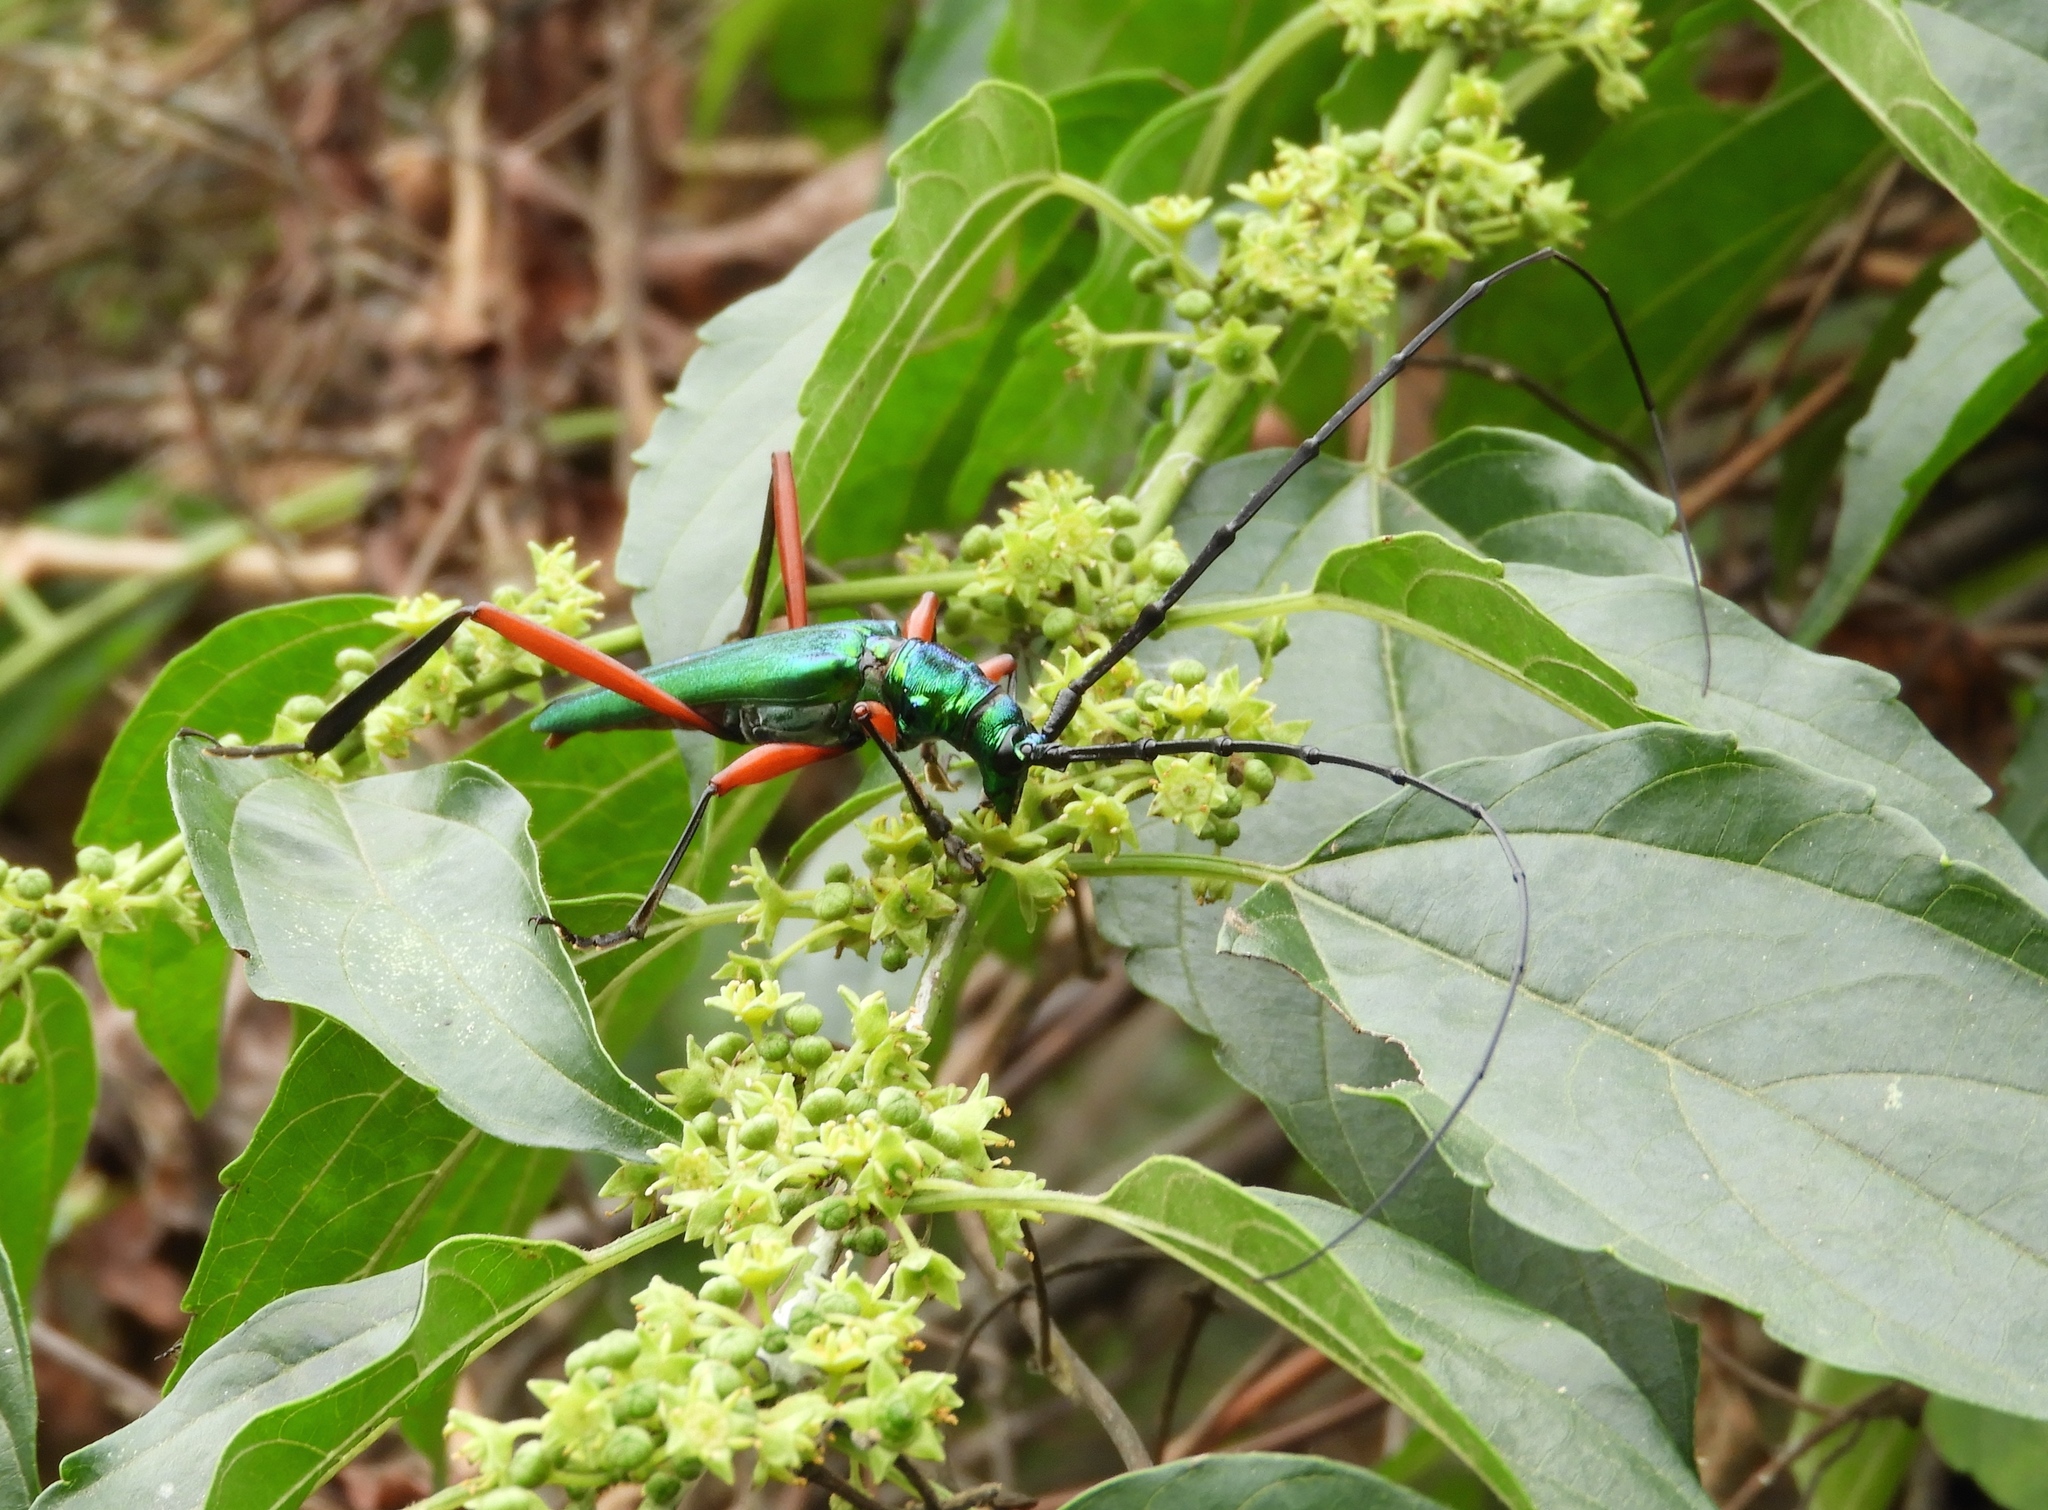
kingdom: Animalia
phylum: Arthropoda
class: Insecta
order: Coleoptera
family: Cerambycidae
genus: Plinthocoelium
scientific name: Plinthocoelium chilensis
